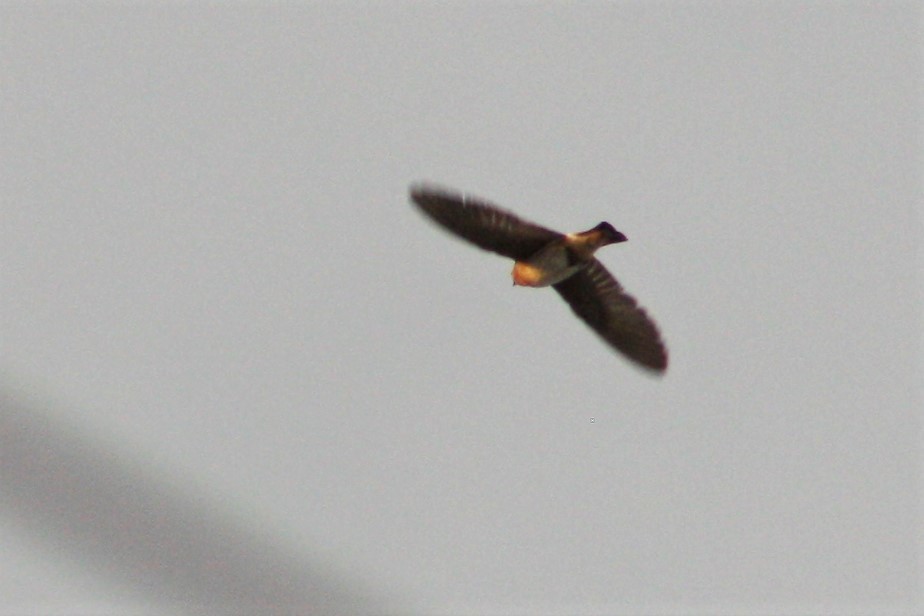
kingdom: Animalia
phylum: Chordata
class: Aves
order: Passeriformes
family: Hirundinidae
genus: Petrochelidon
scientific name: Petrochelidon fulva
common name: Cave swallow
